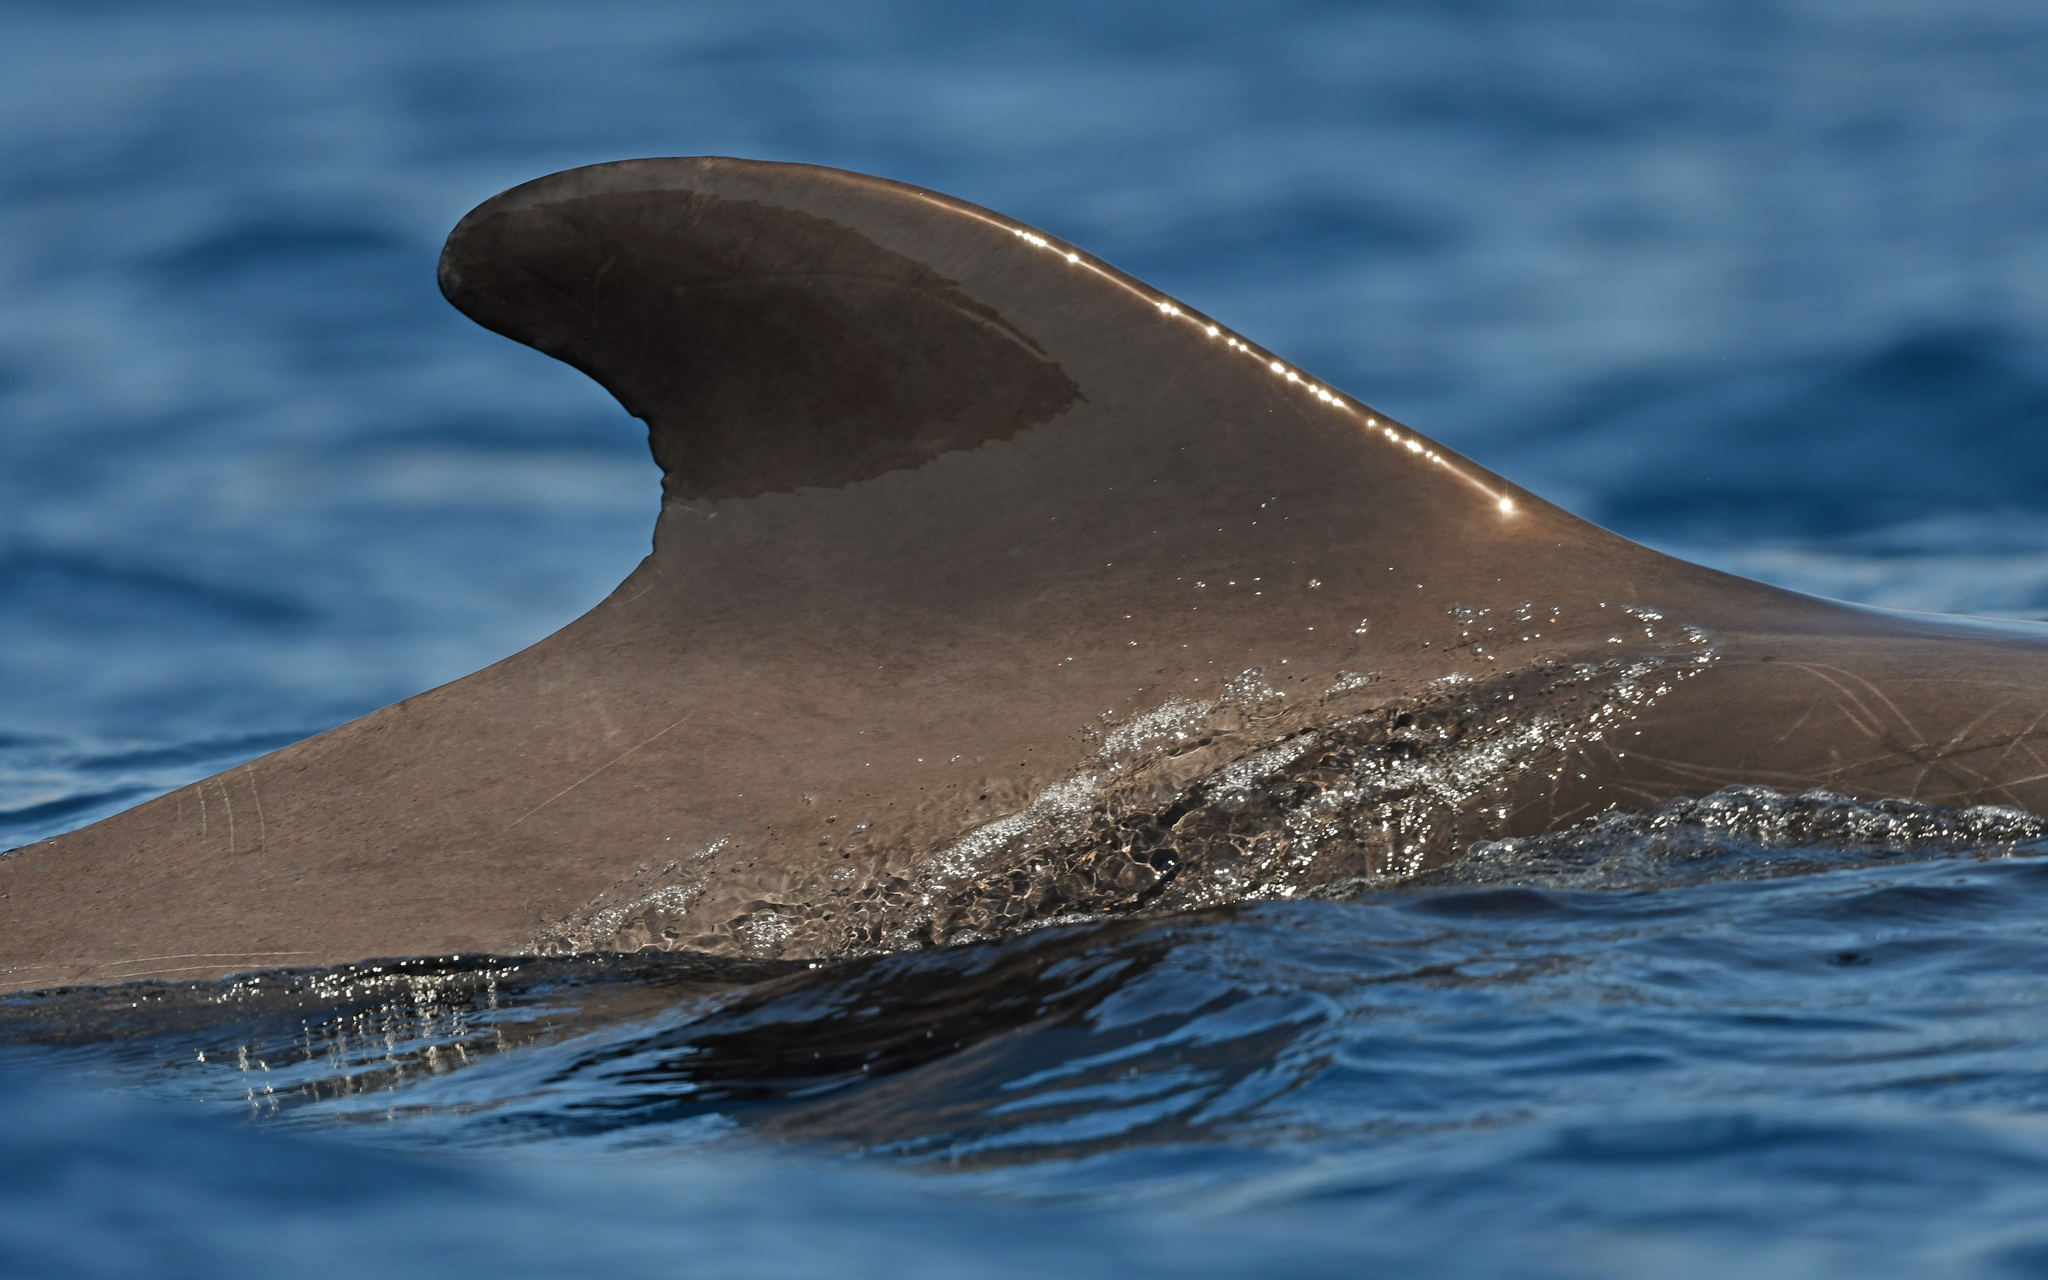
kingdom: Animalia
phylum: Chordata
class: Mammalia
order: Cetacea
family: Delphinidae
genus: Globicephala
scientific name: Globicephala macrorhynchus
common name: Short-finned pilot whale
